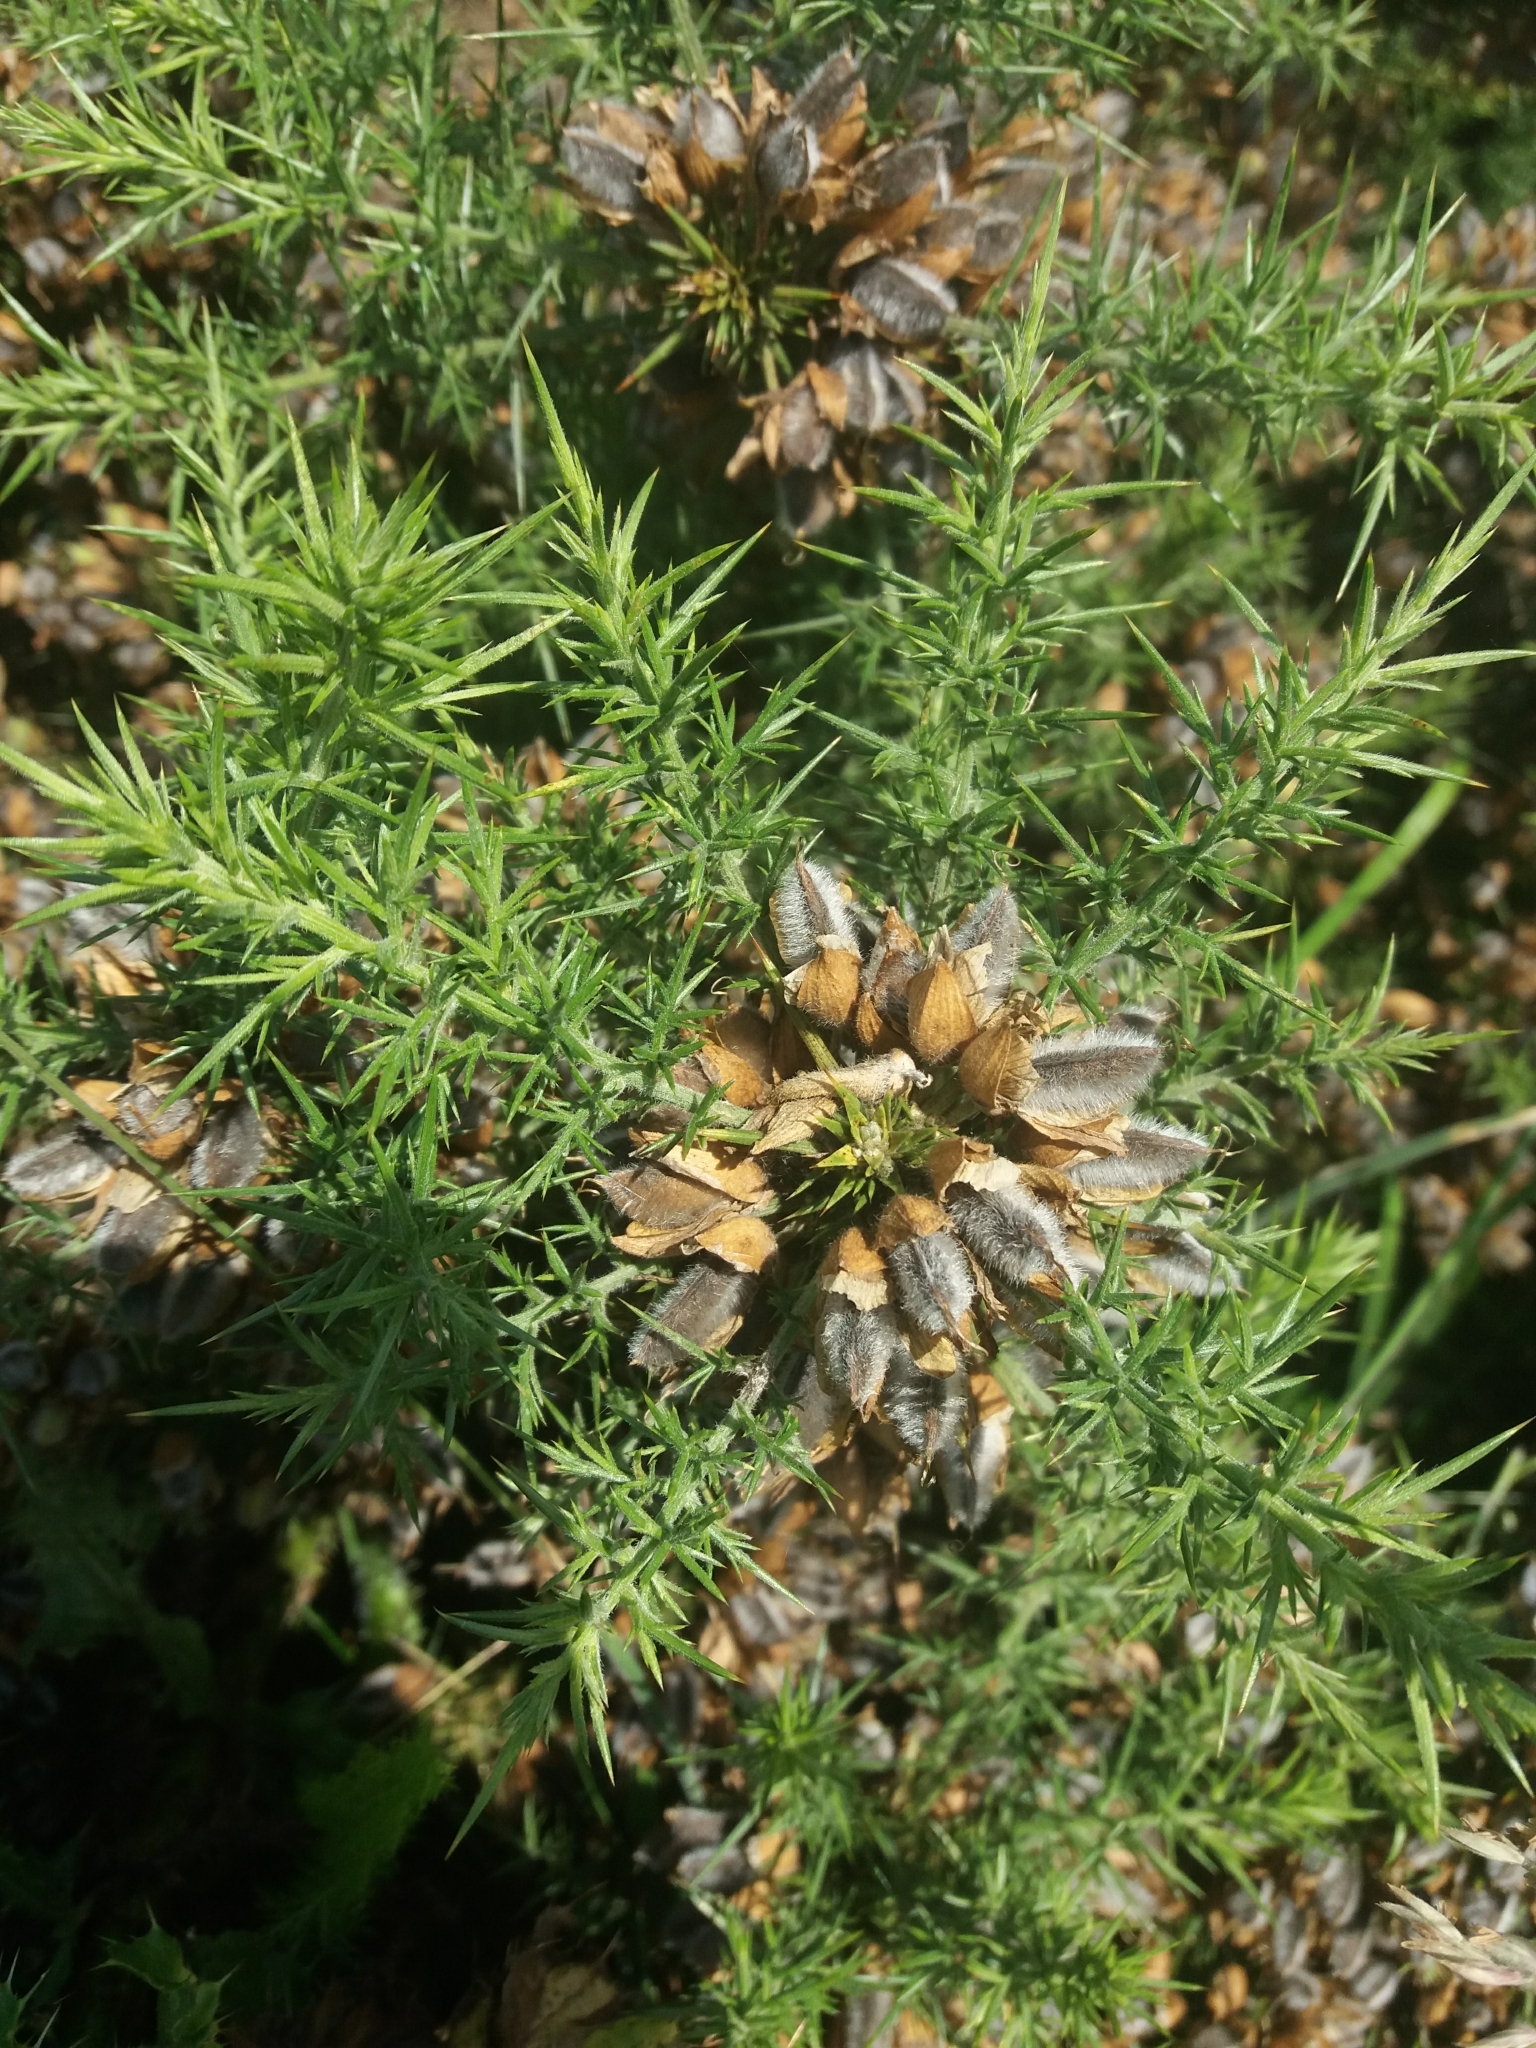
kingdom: Plantae
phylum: Tracheophyta
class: Magnoliopsida
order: Fabales
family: Fabaceae
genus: Ulex
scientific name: Ulex europaeus
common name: Common gorse
